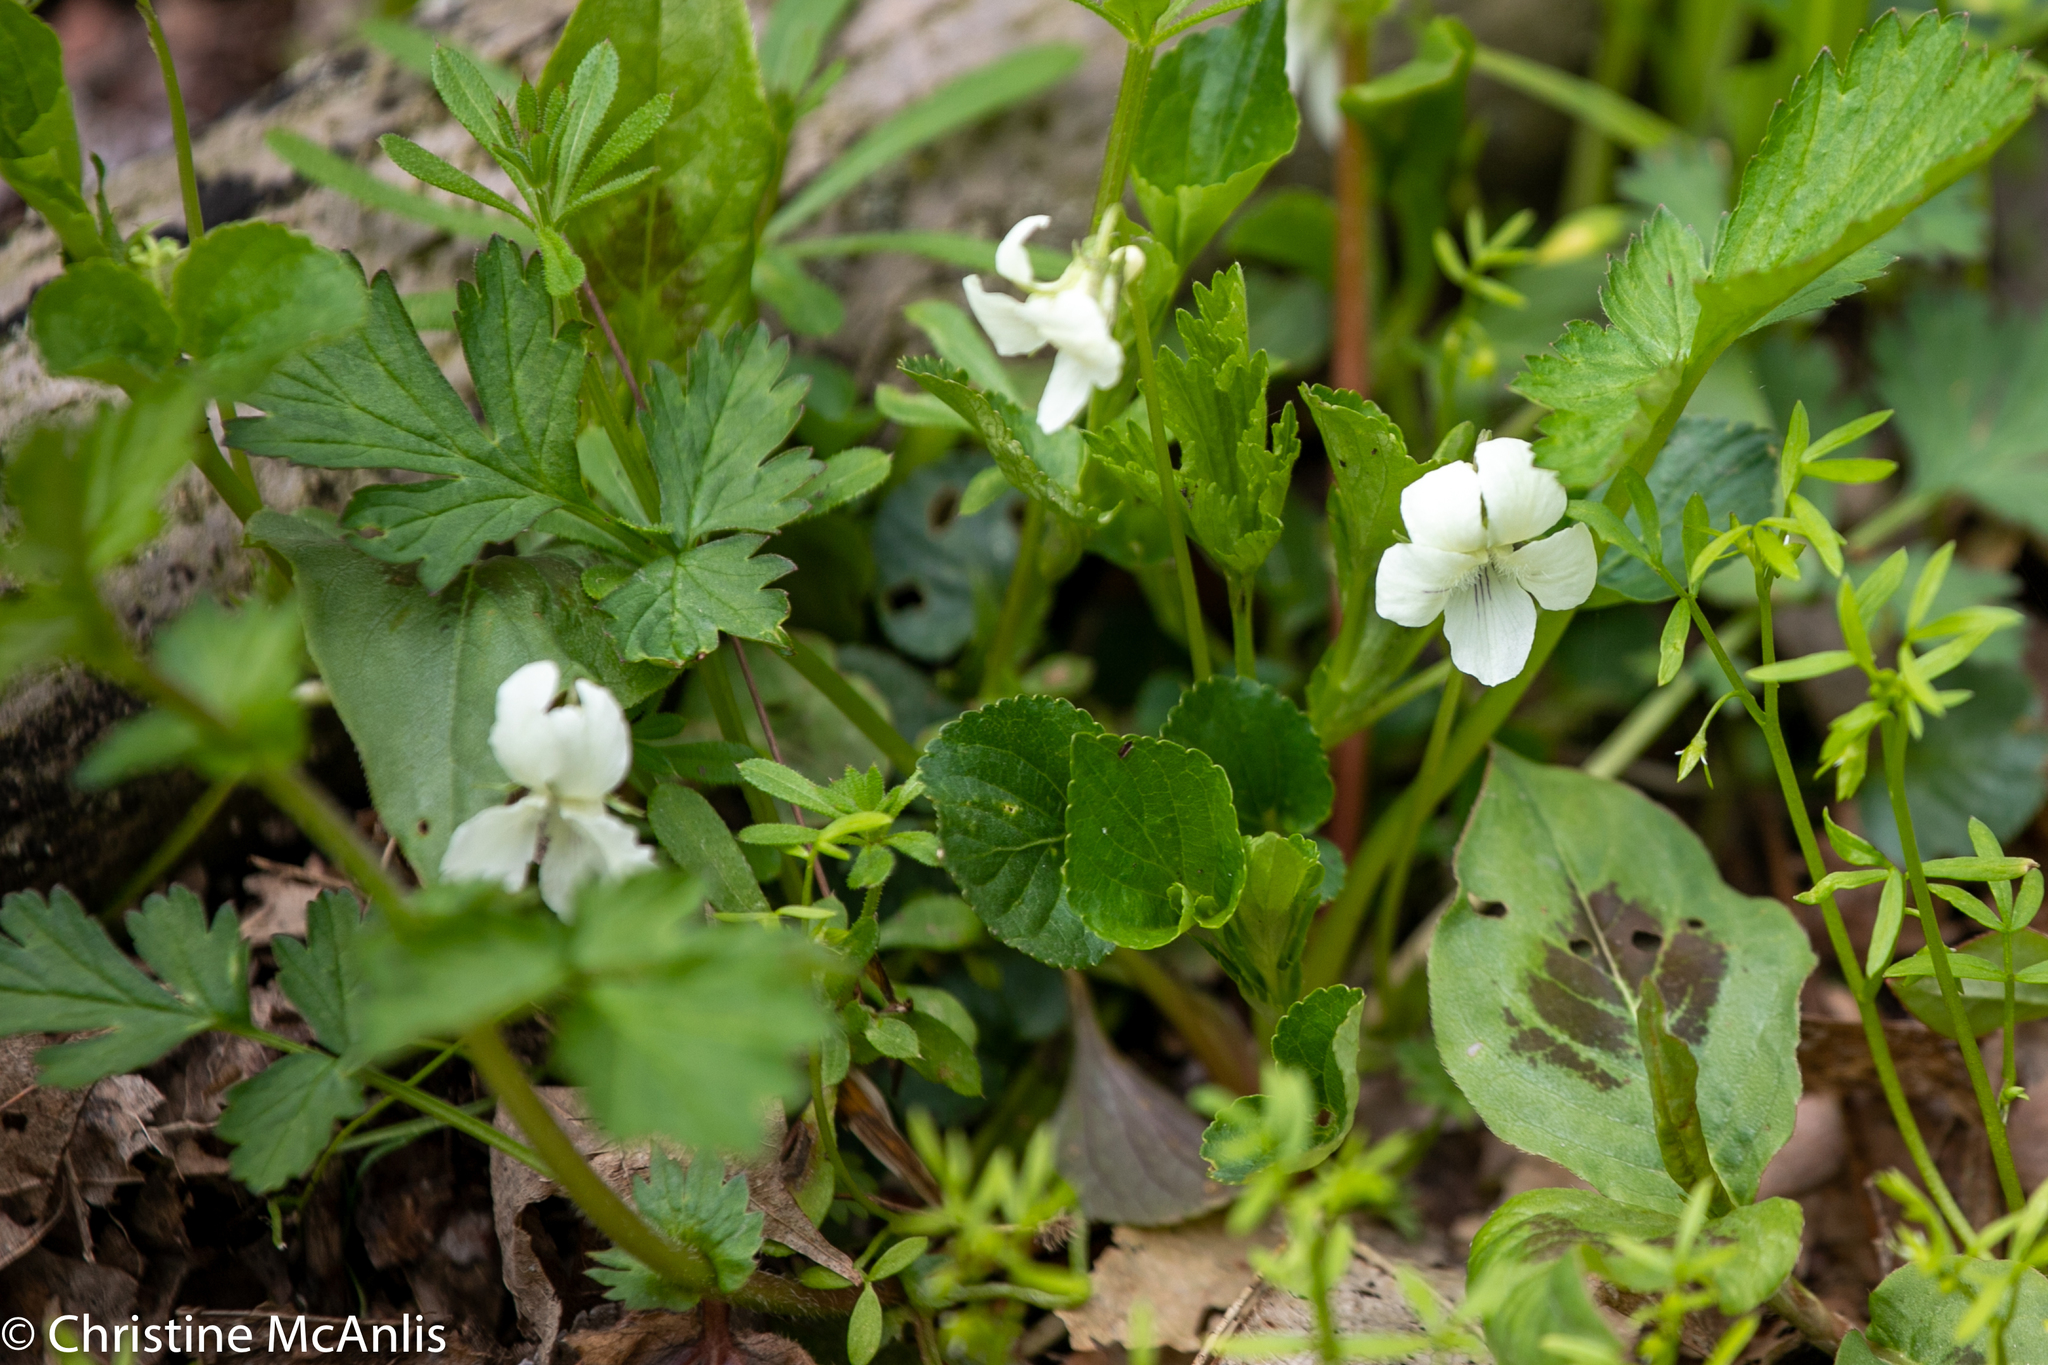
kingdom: Plantae
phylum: Tracheophyta
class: Magnoliopsida
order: Malpighiales
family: Violaceae
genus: Viola
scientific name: Viola striata
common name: Cream violet
